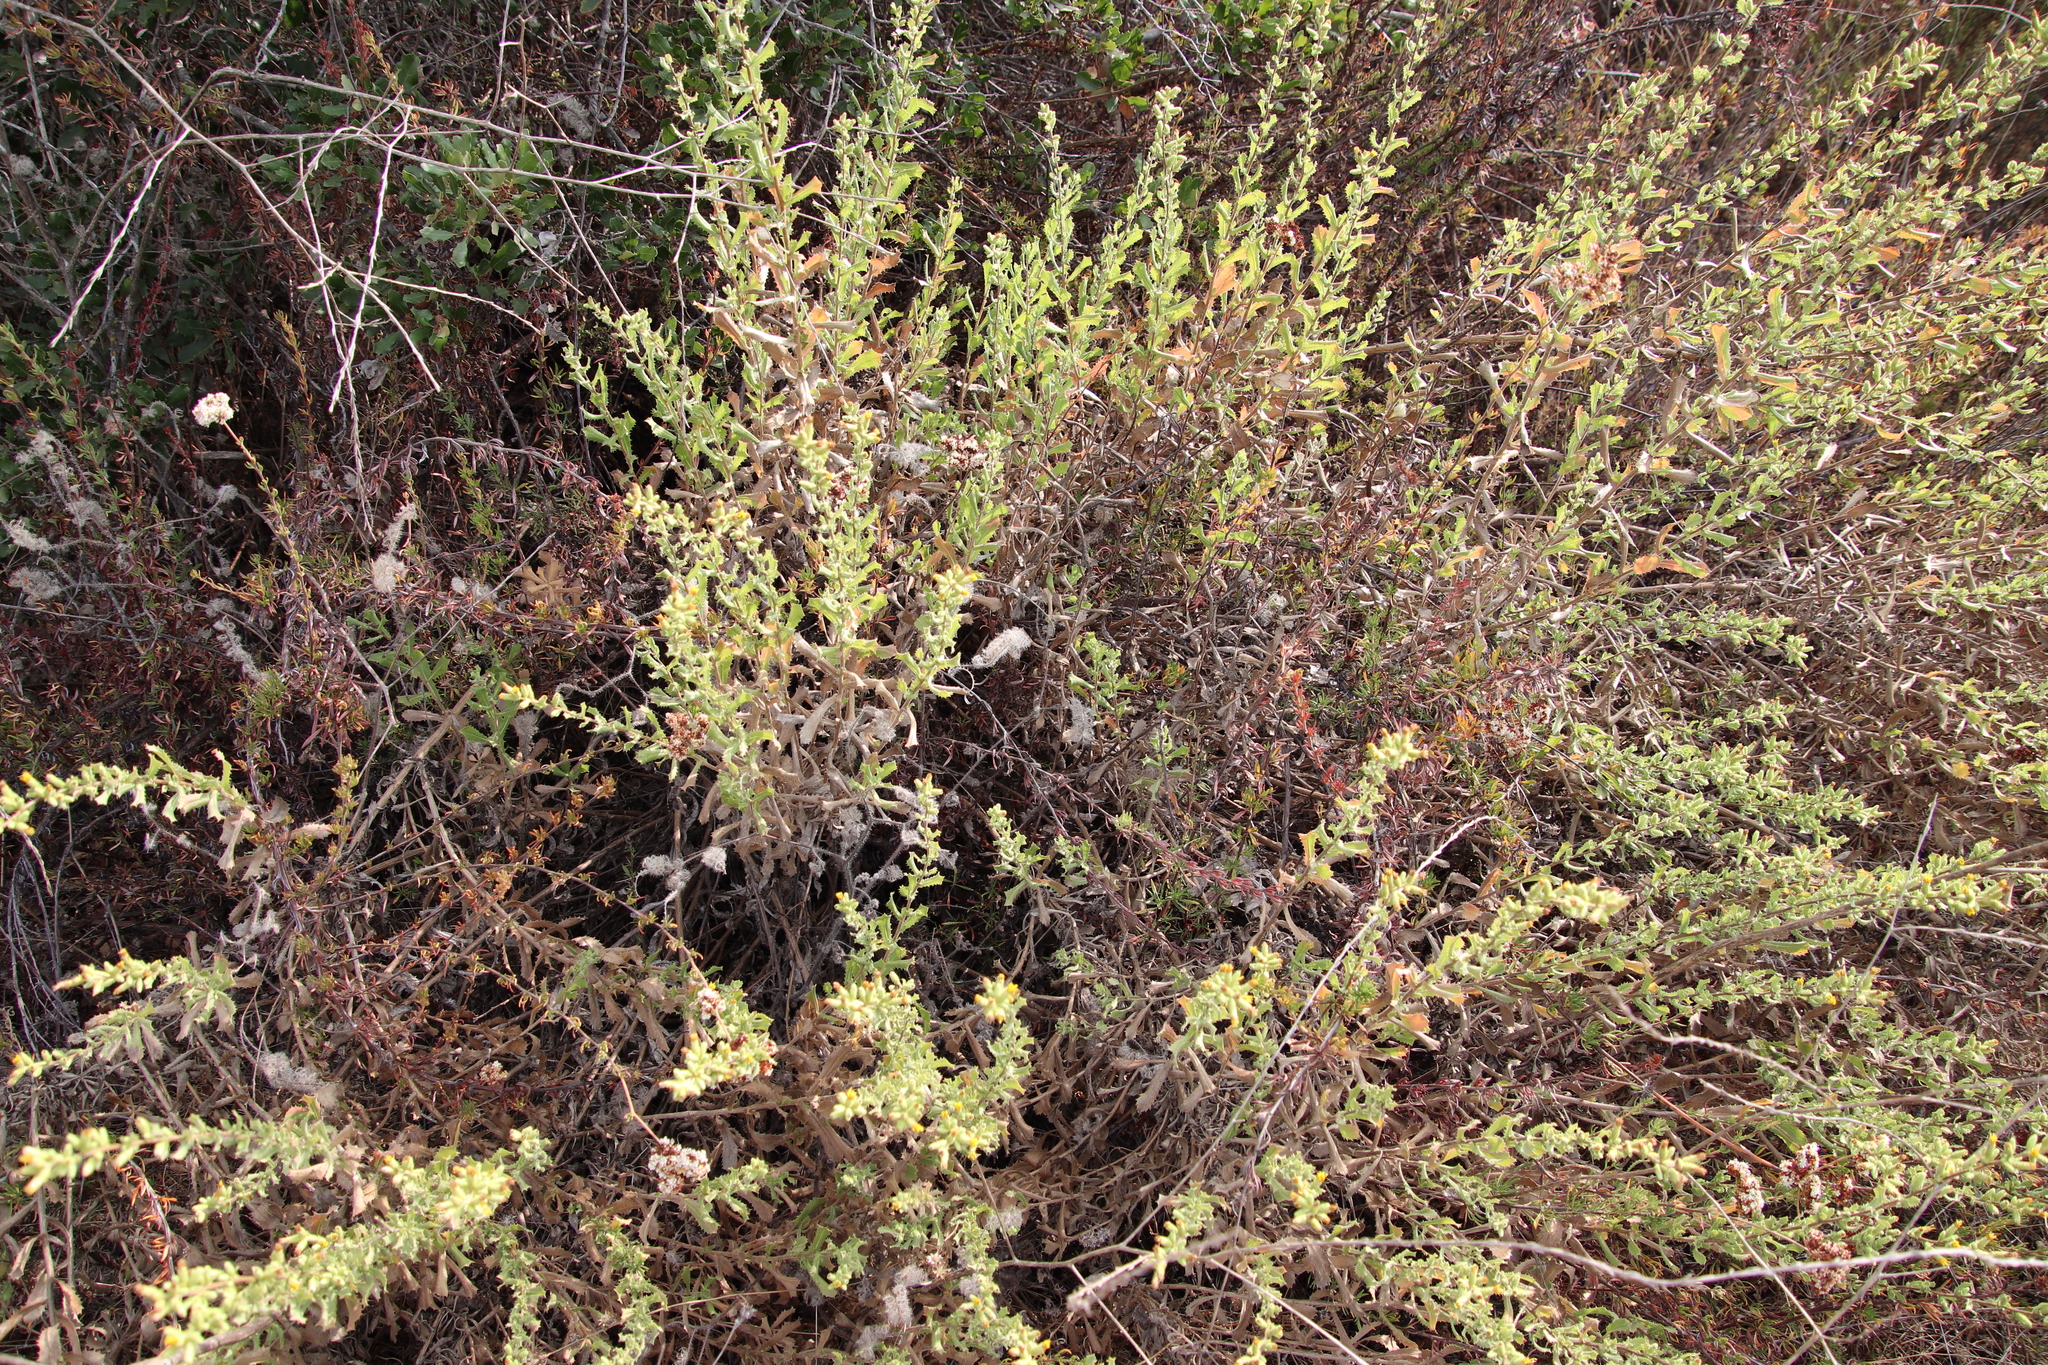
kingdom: Plantae
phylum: Tracheophyta
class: Magnoliopsida
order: Asterales
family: Asteraceae
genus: Hazardia
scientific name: Hazardia squarrosa
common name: Saw-tooth goldenbush
